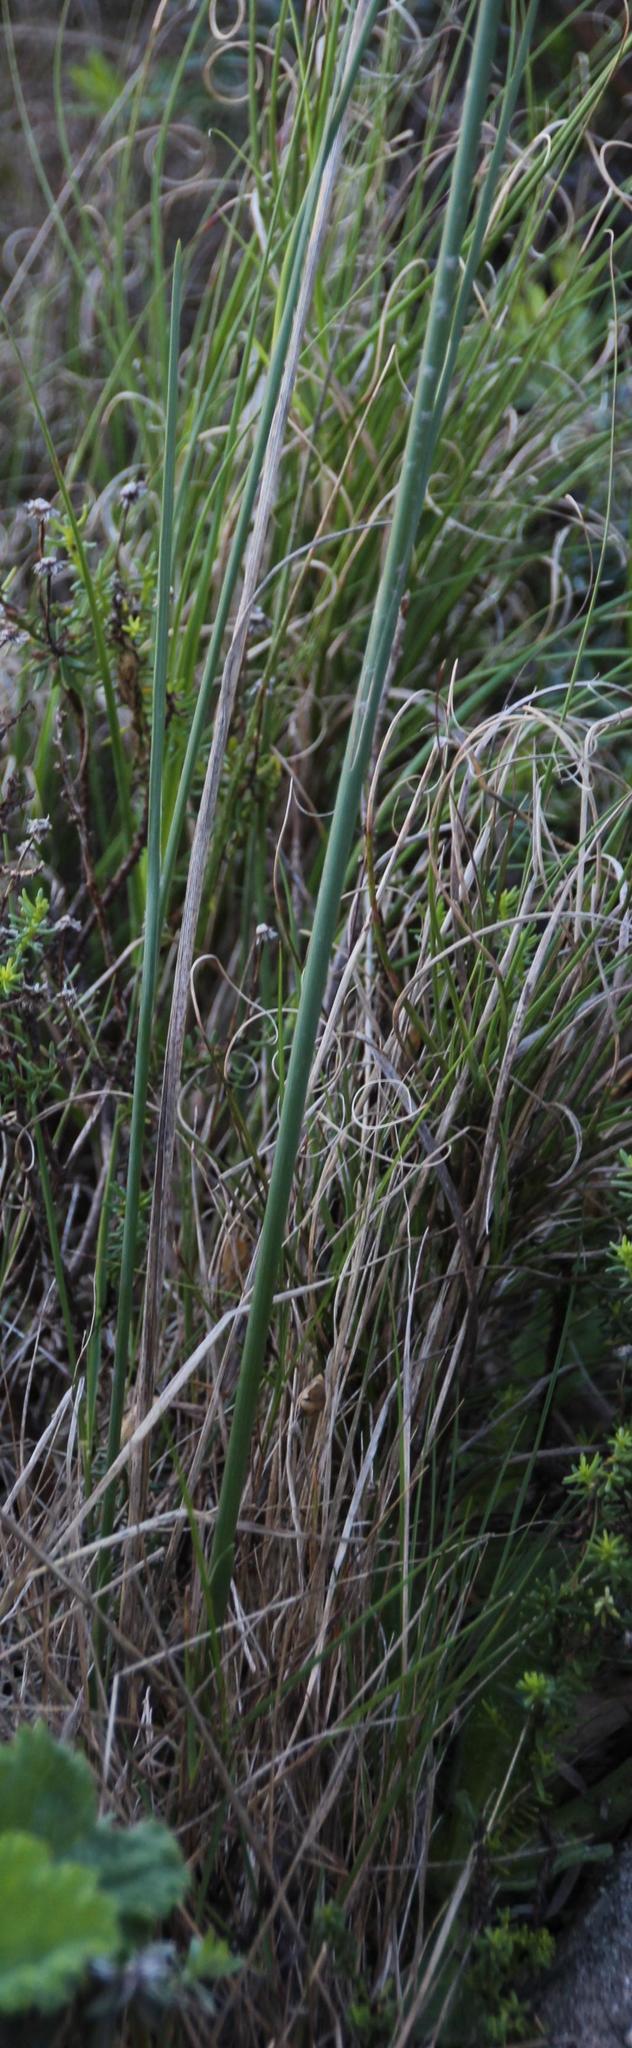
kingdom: Plantae
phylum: Tracheophyta
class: Liliopsida
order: Asparagales
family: Iridaceae
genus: Gladiolus
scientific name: Gladiolus priorii
